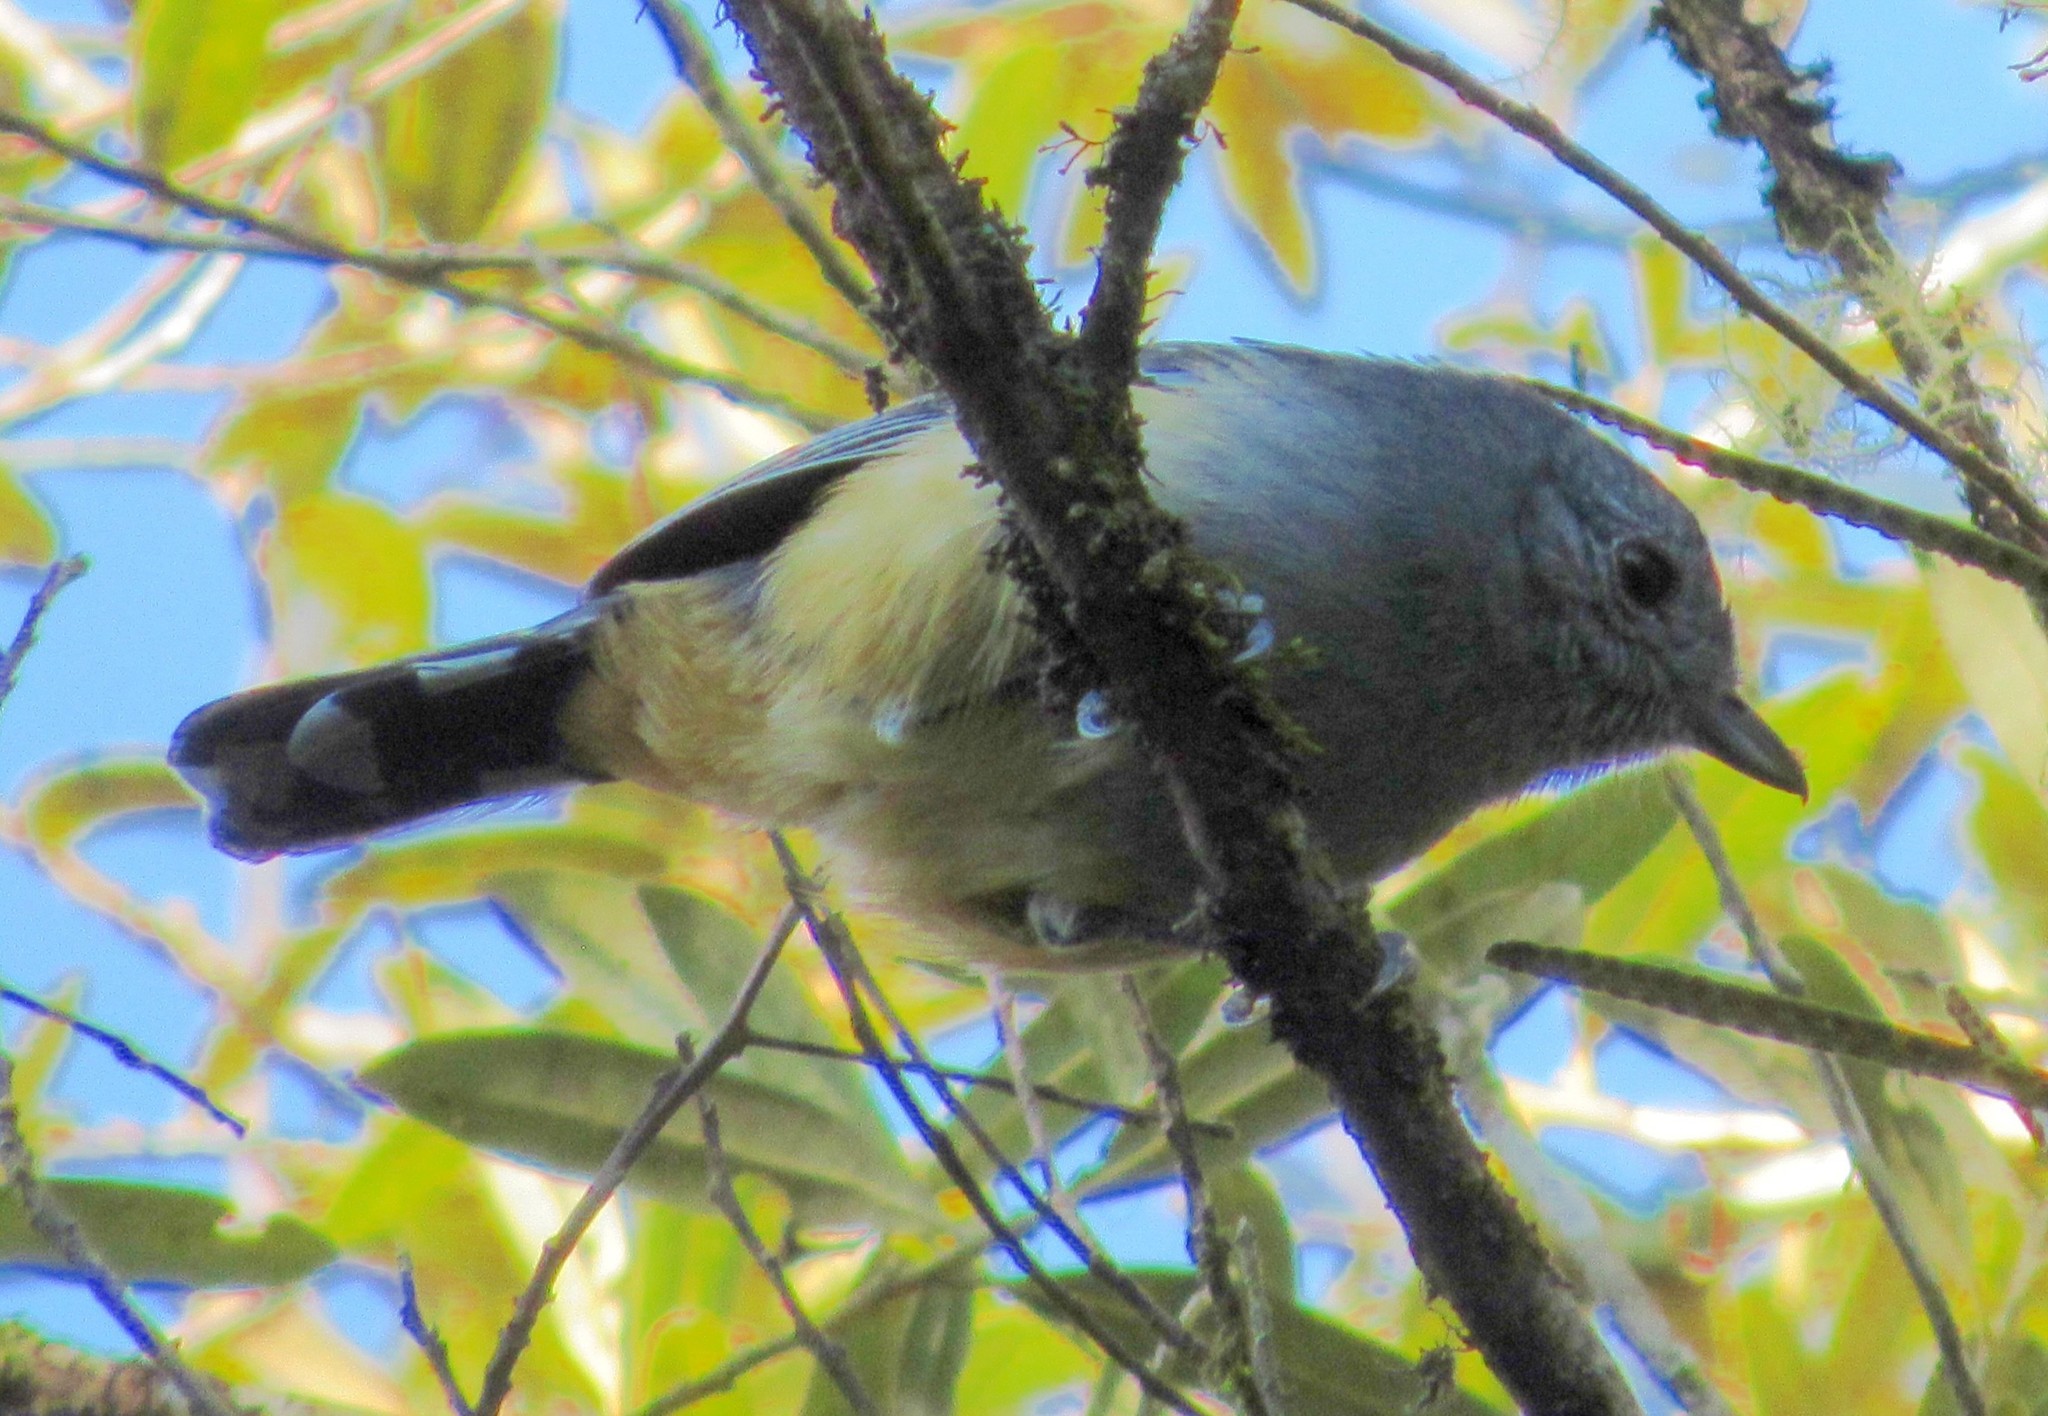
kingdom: Animalia
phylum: Chordata
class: Aves
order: Passeriformes
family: Thamnophilidae
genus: Thamnophilus
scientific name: Thamnophilus caerulescens
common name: Variable antshrike
